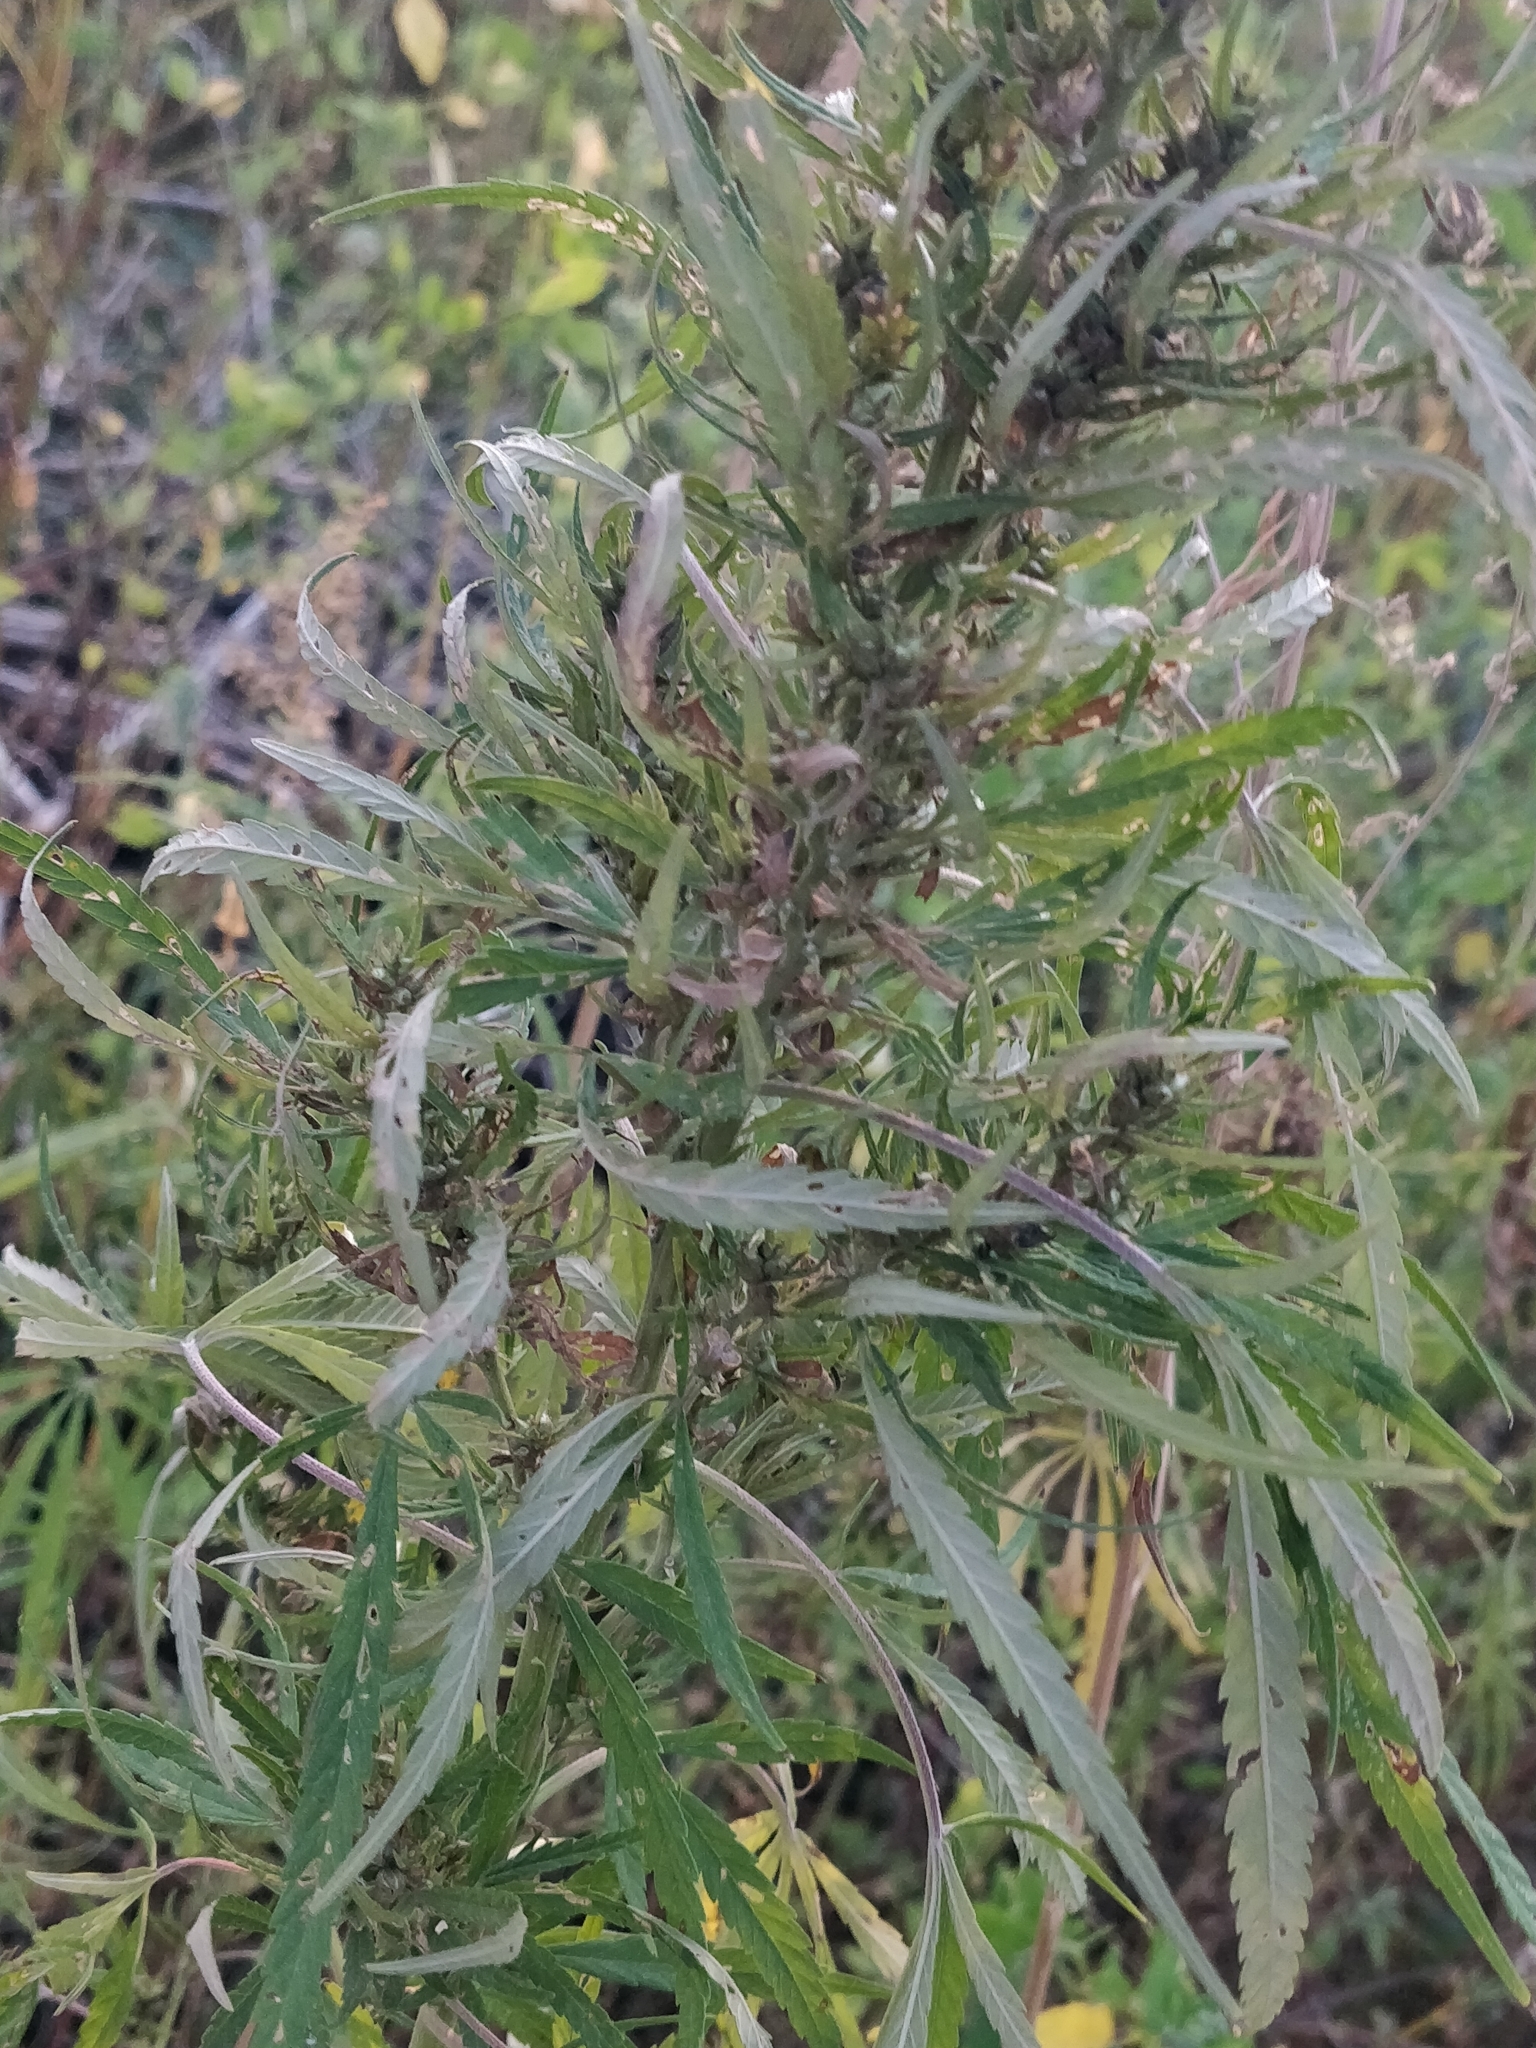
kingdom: Plantae
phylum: Tracheophyta
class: Magnoliopsida
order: Rosales
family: Cannabaceae
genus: Cannabis
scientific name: Cannabis sativa
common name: Hemp
